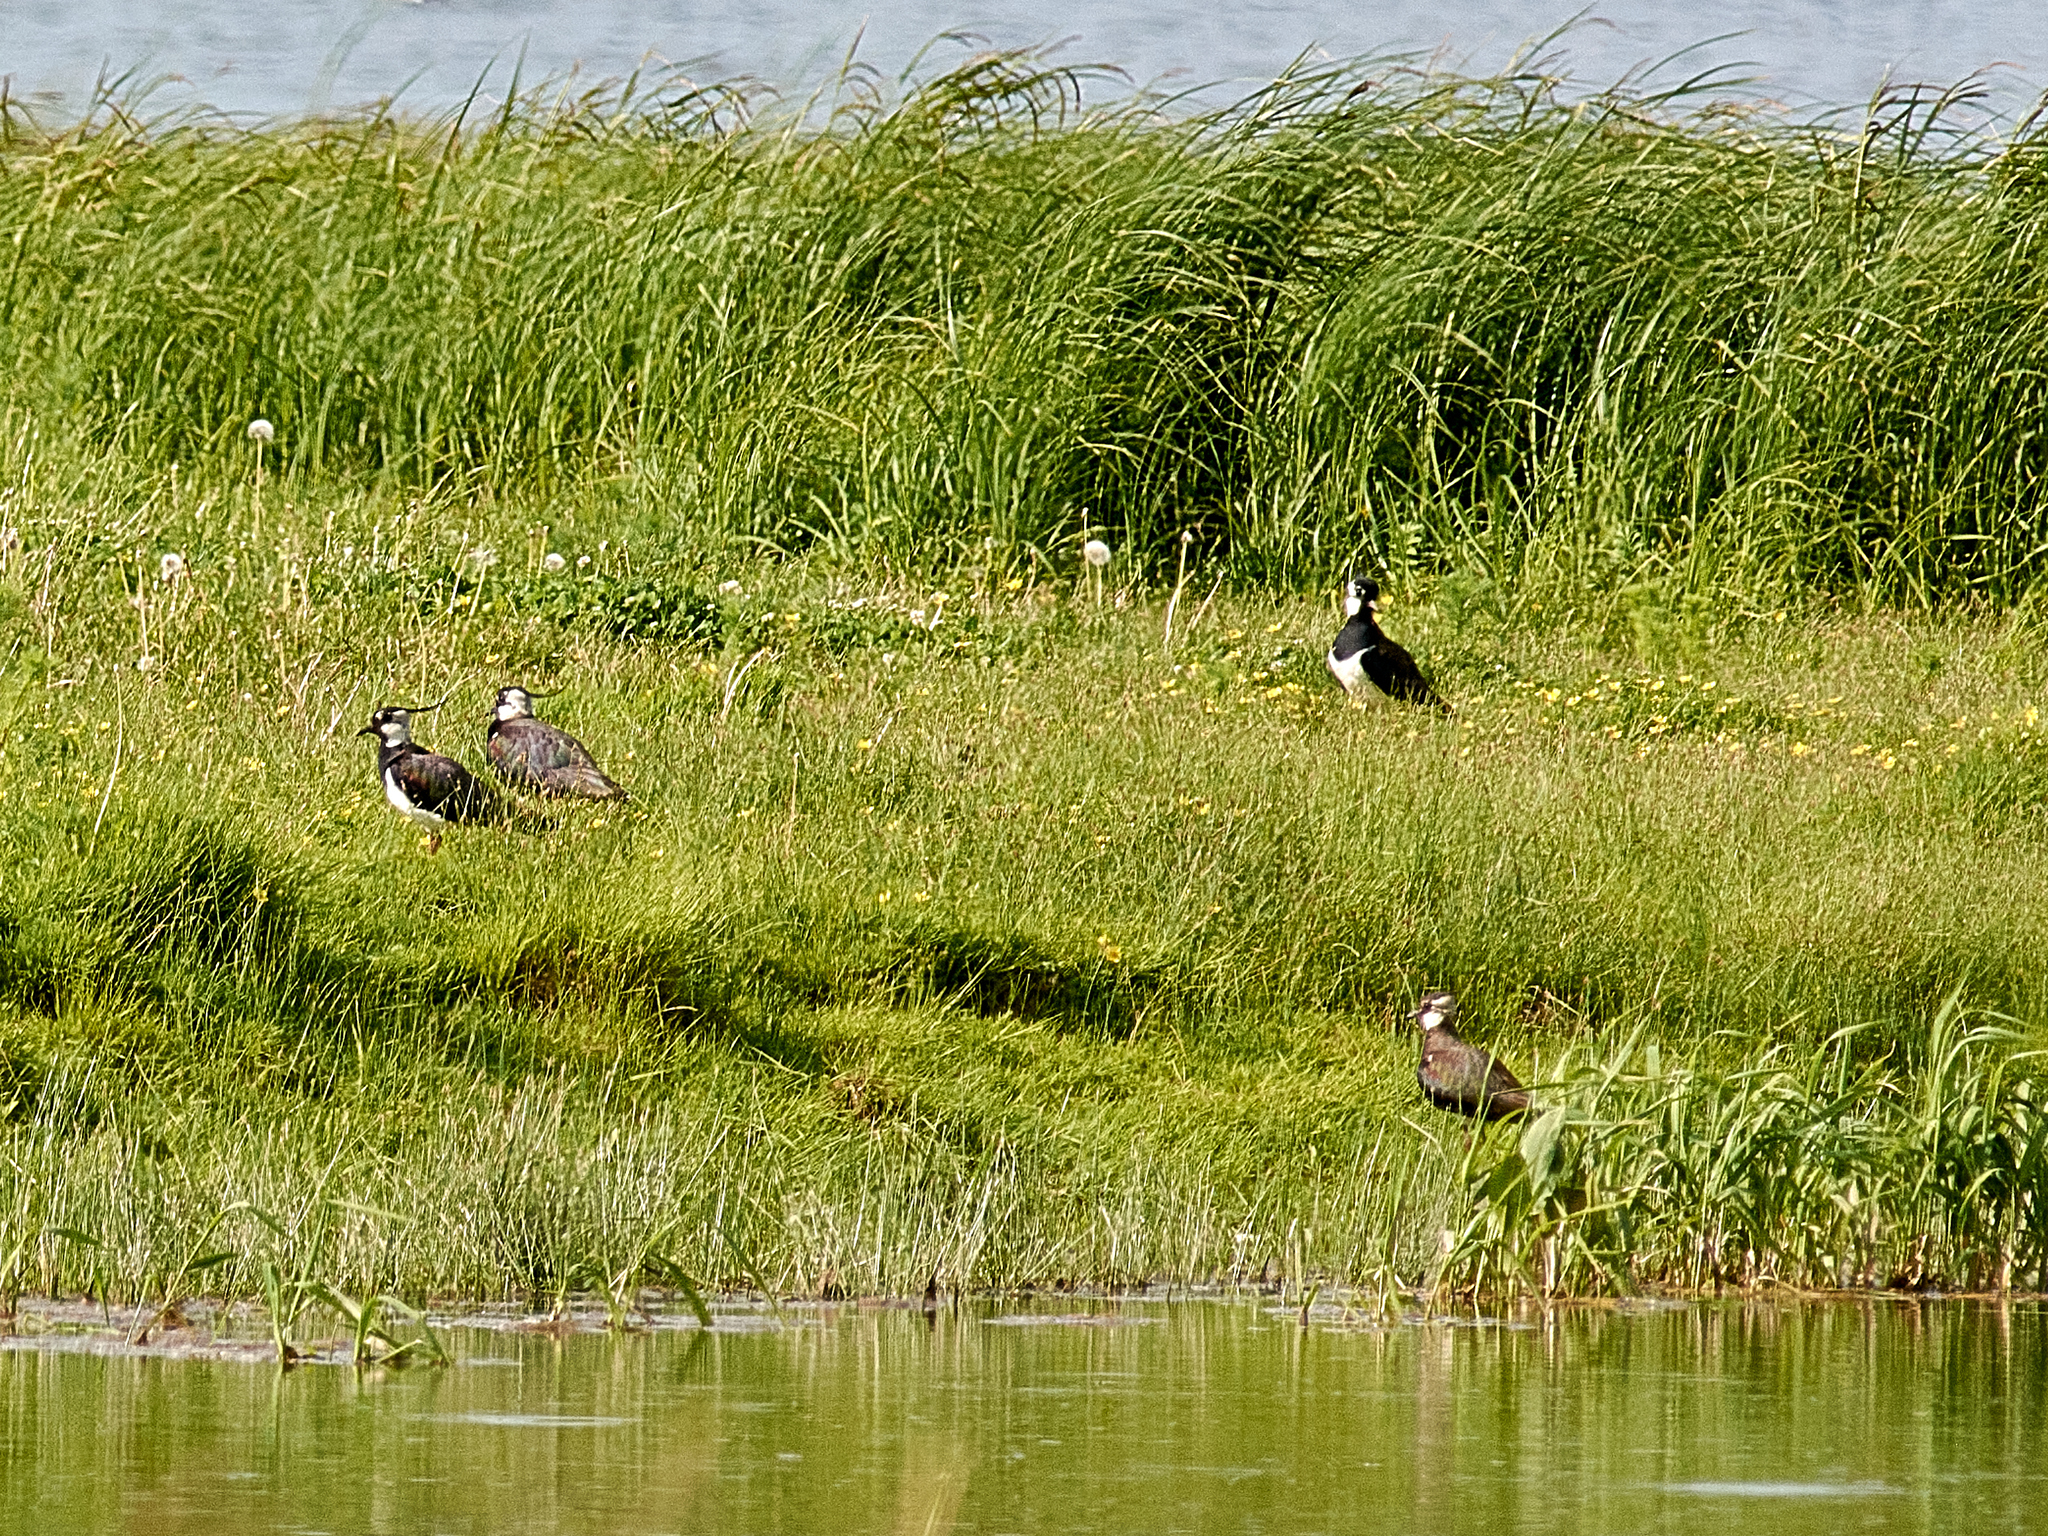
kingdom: Animalia
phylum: Chordata
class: Aves
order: Charadriiformes
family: Charadriidae
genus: Vanellus
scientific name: Vanellus vanellus
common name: Northern lapwing
